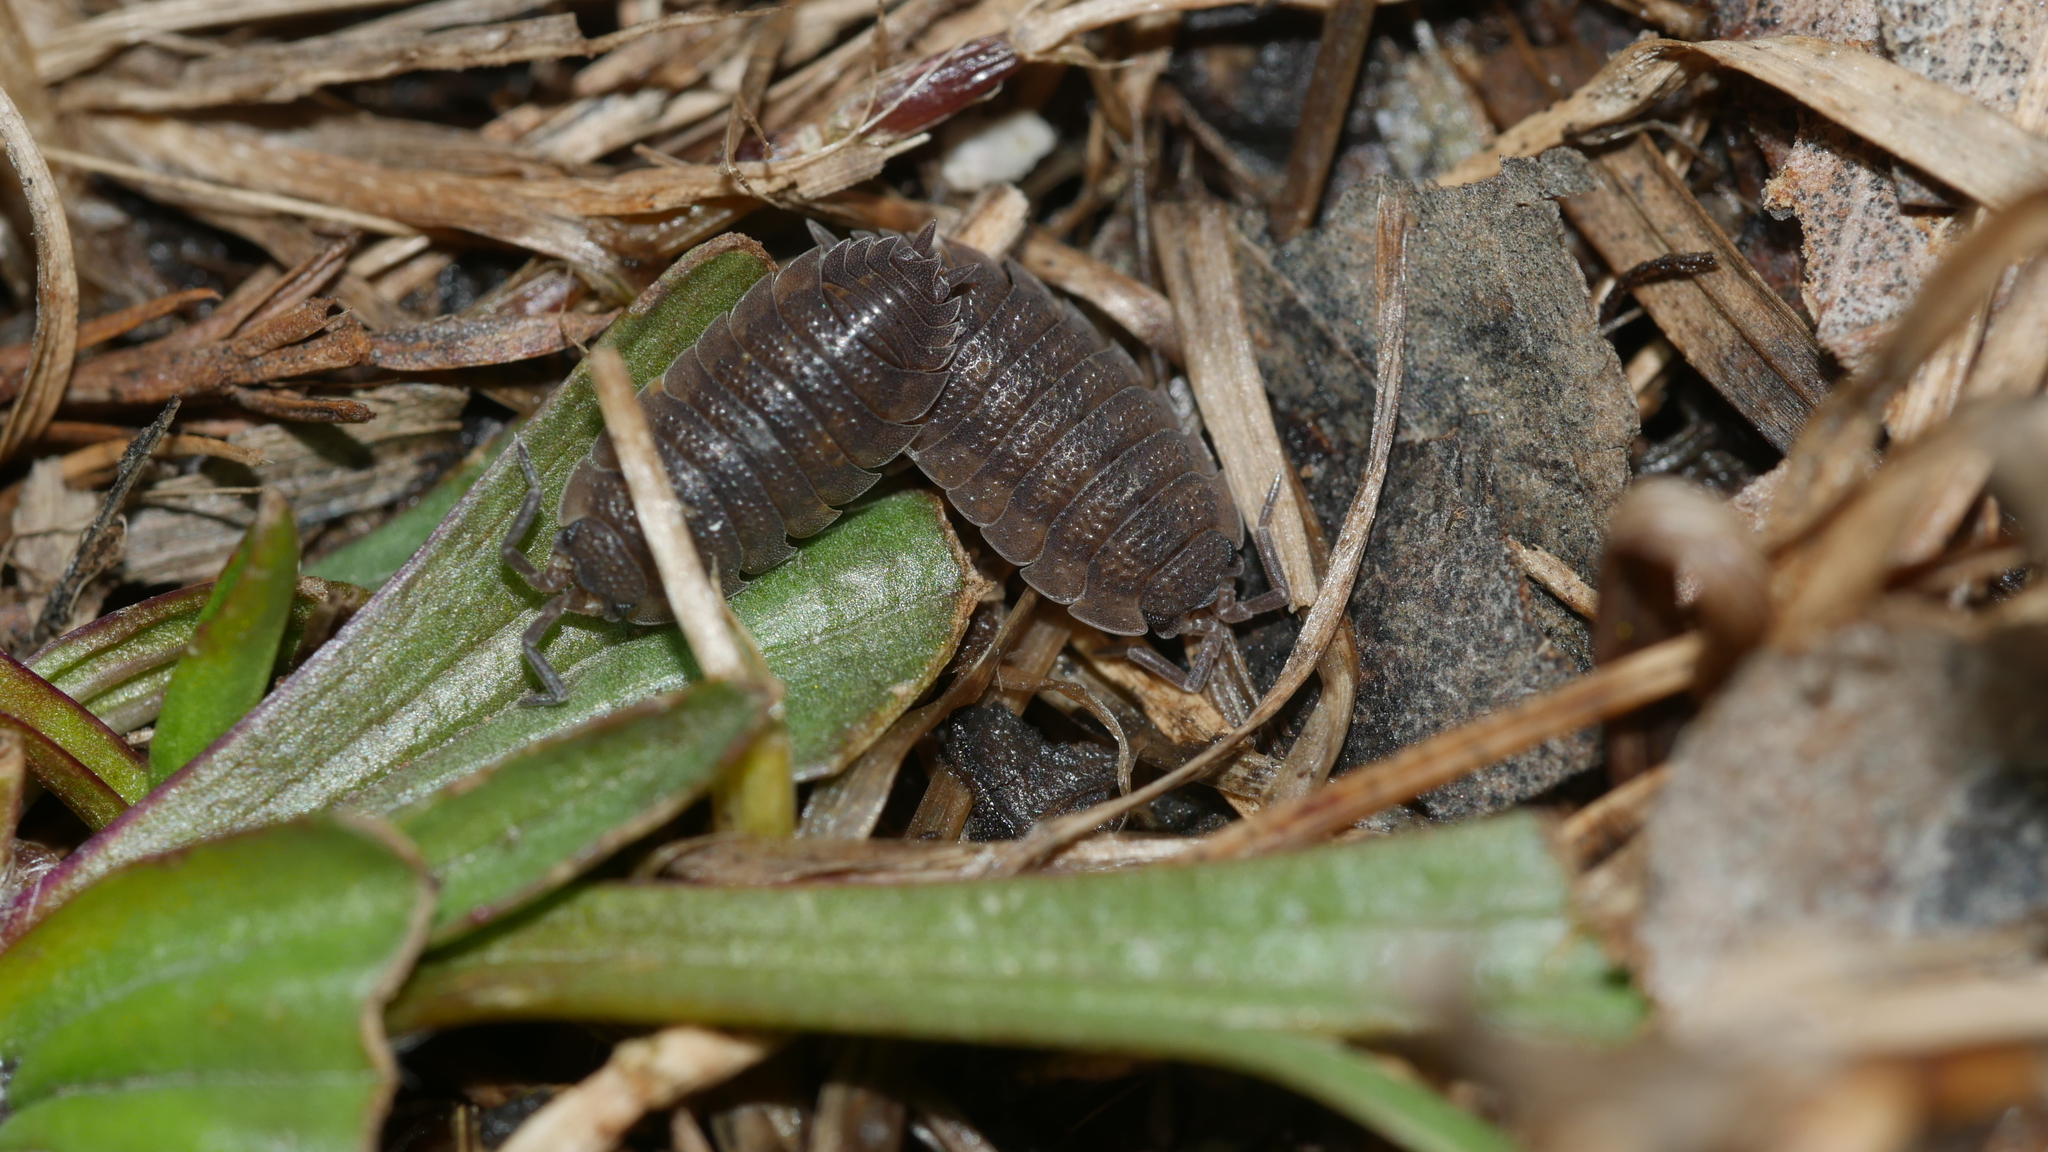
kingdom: Animalia
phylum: Arthropoda
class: Malacostraca
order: Isopoda
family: Porcellionidae
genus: Porcellio
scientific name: Porcellio scaber
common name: Common rough woodlouse
